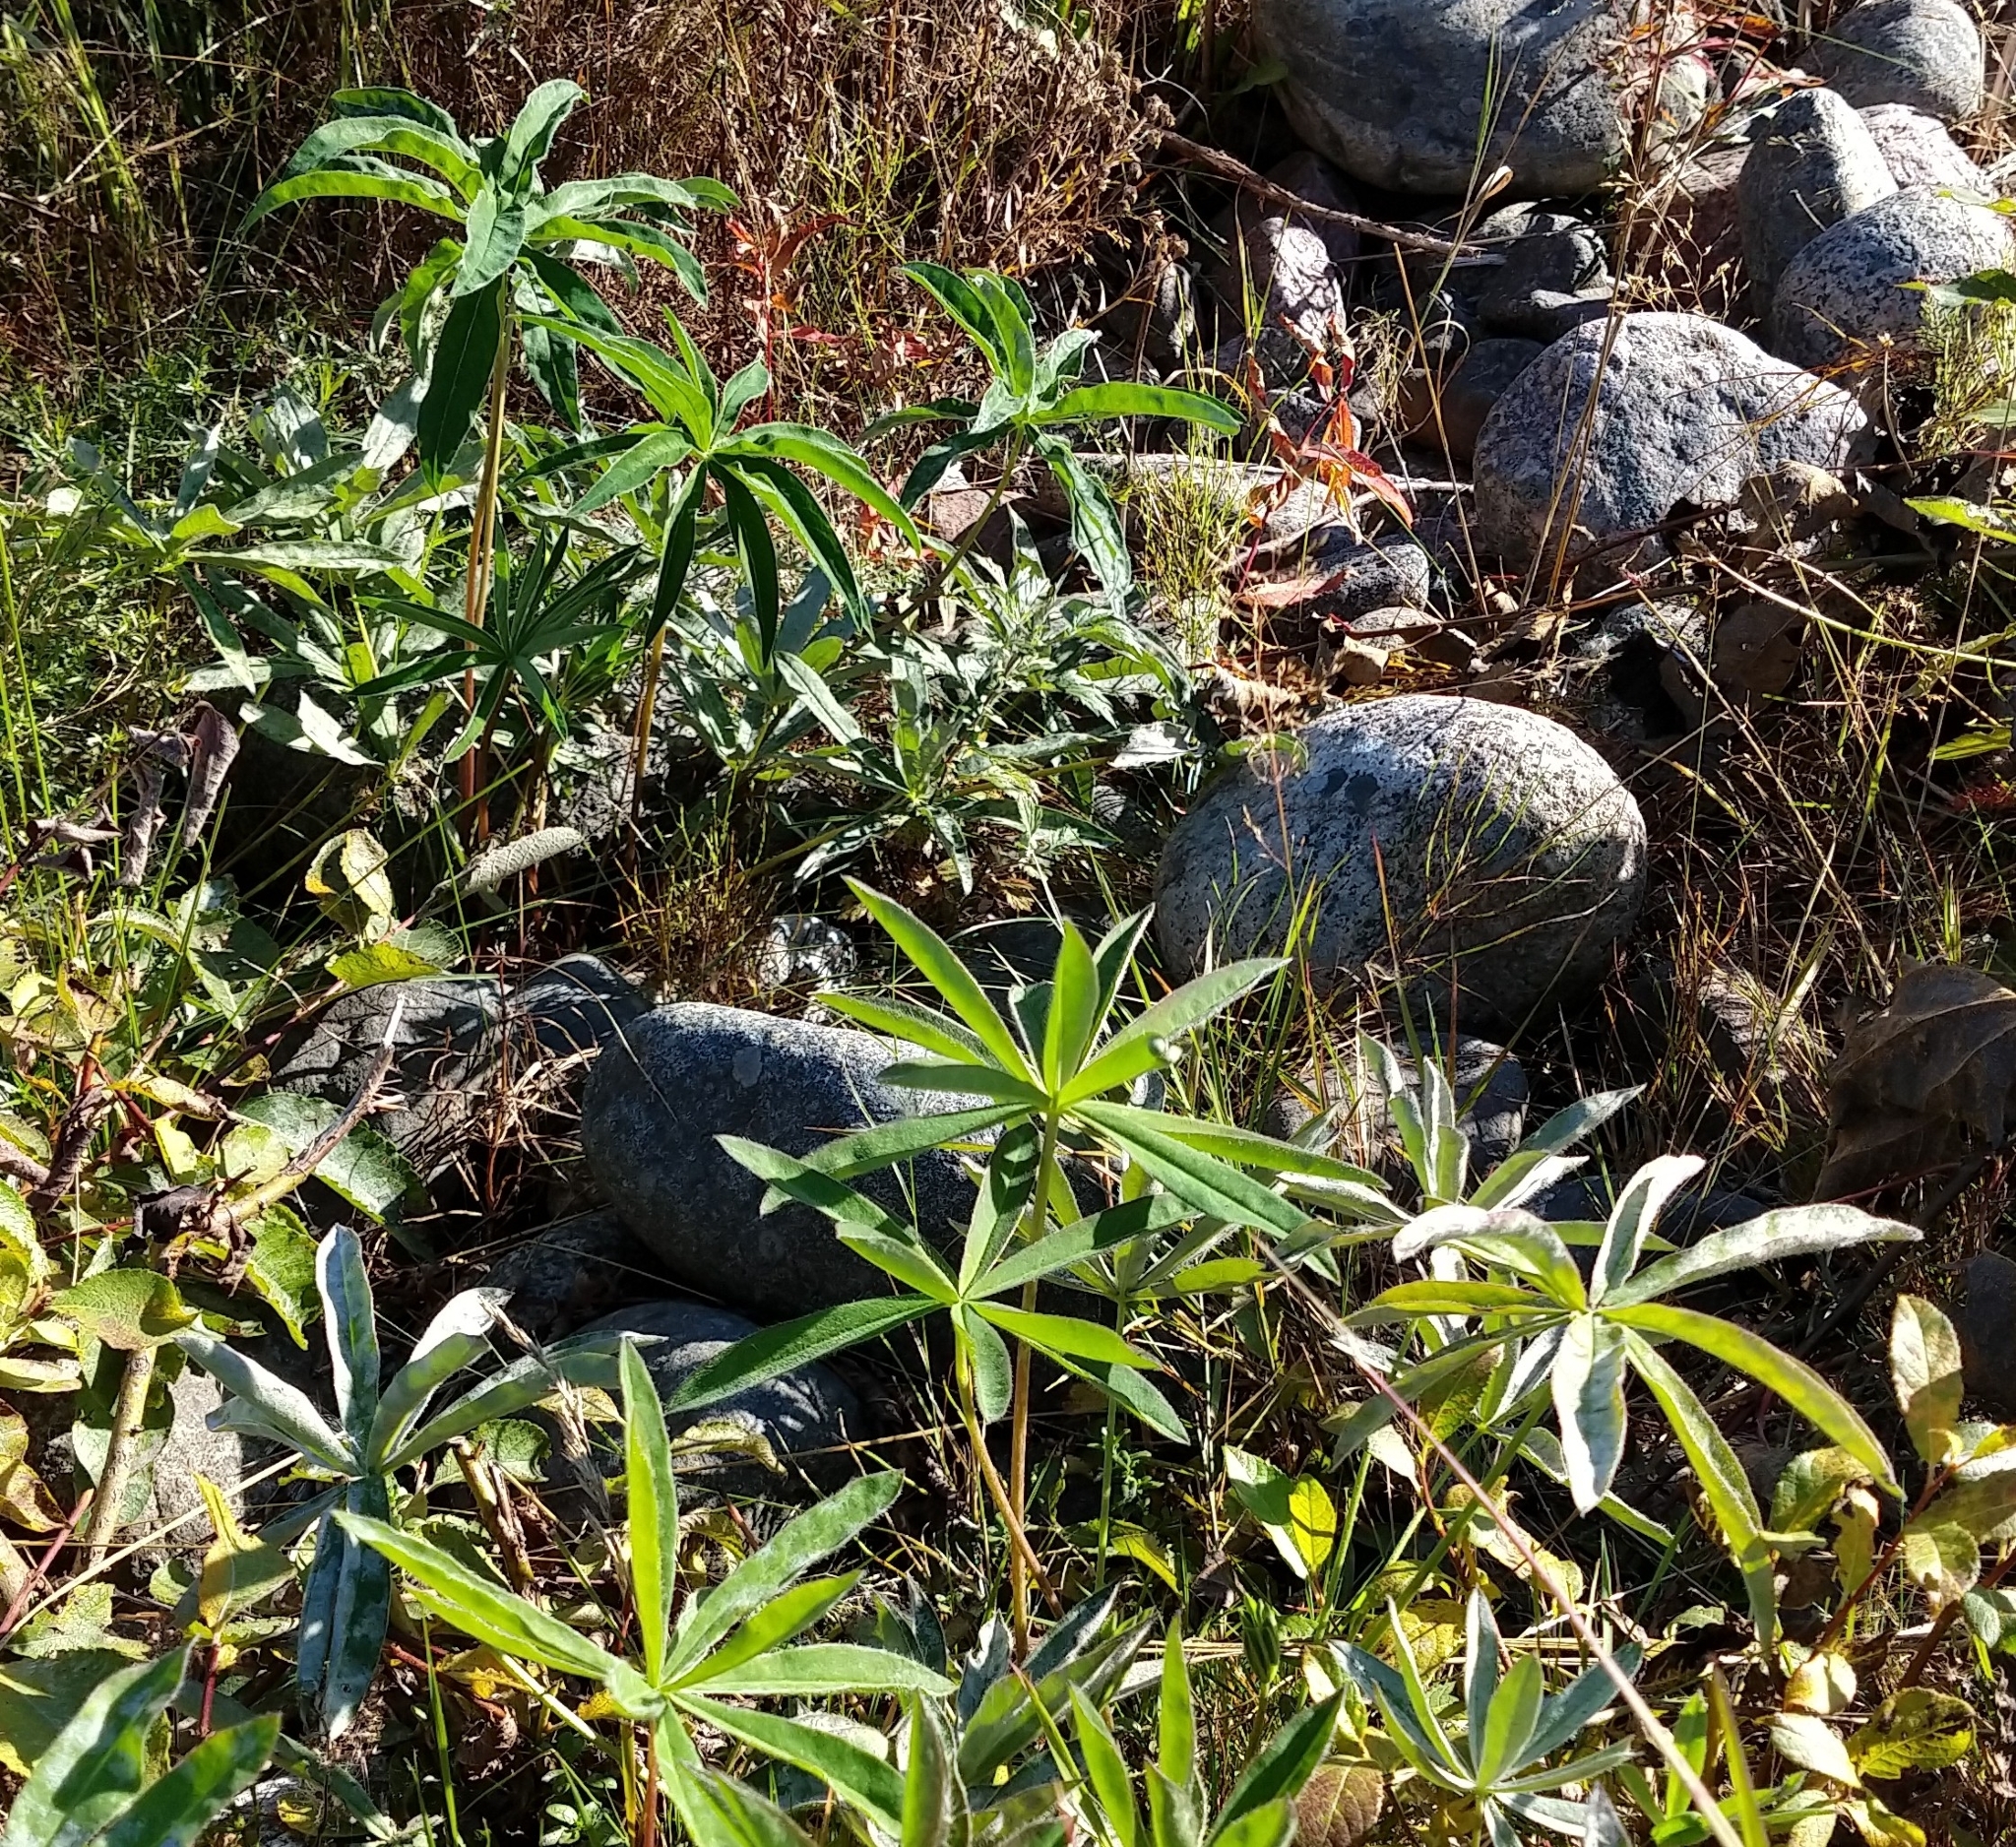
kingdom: Plantae
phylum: Tracheophyta
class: Magnoliopsida
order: Fabales
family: Fabaceae
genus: Lupinus
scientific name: Lupinus polyphyllus
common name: Garden lupin
